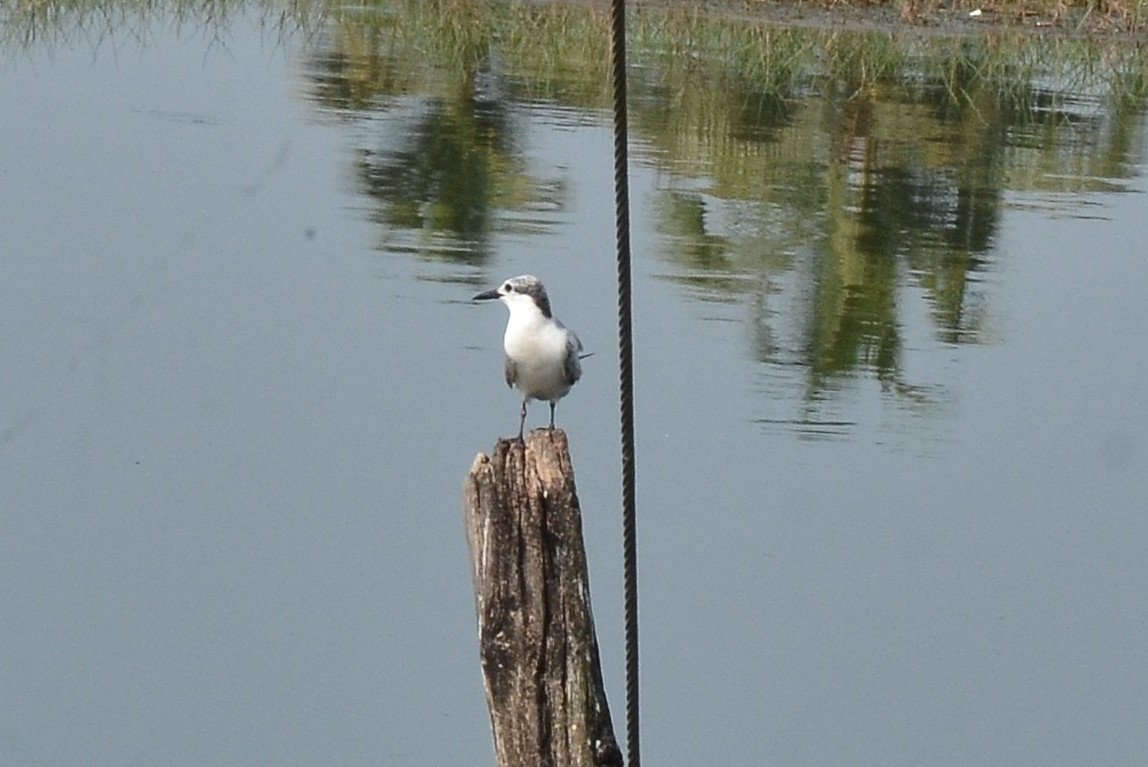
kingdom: Animalia
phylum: Chordata
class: Aves
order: Charadriiformes
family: Laridae
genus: Chlidonias
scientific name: Chlidonias hybrida
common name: Whiskered tern
